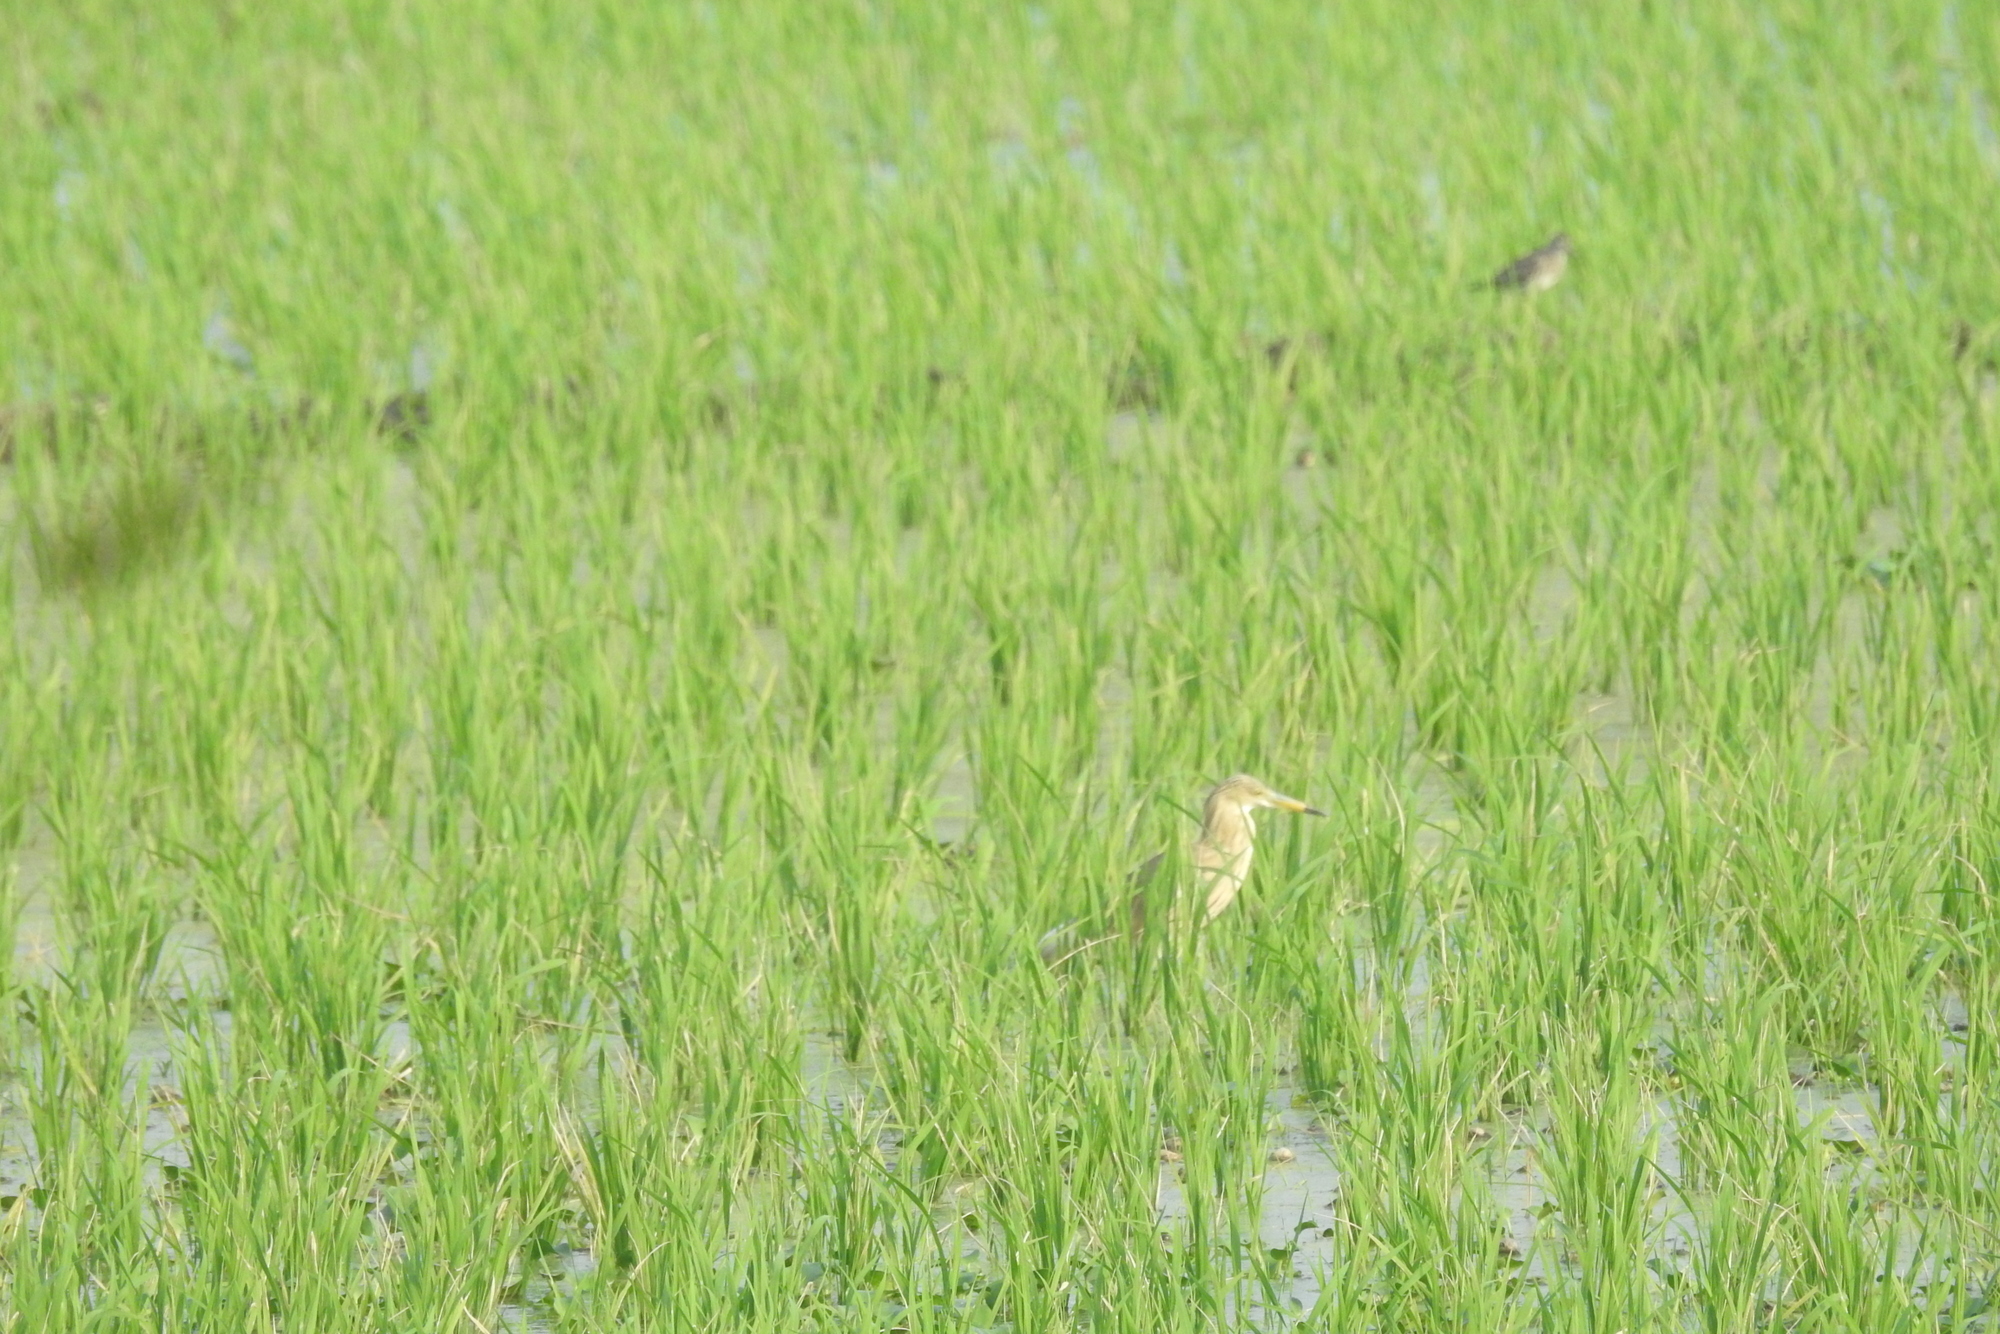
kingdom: Animalia
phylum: Chordata
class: Aves
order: Pelecaniformes
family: Ardeidae
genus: Ardeola
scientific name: Ardeola grayii
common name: Indian pond heron
